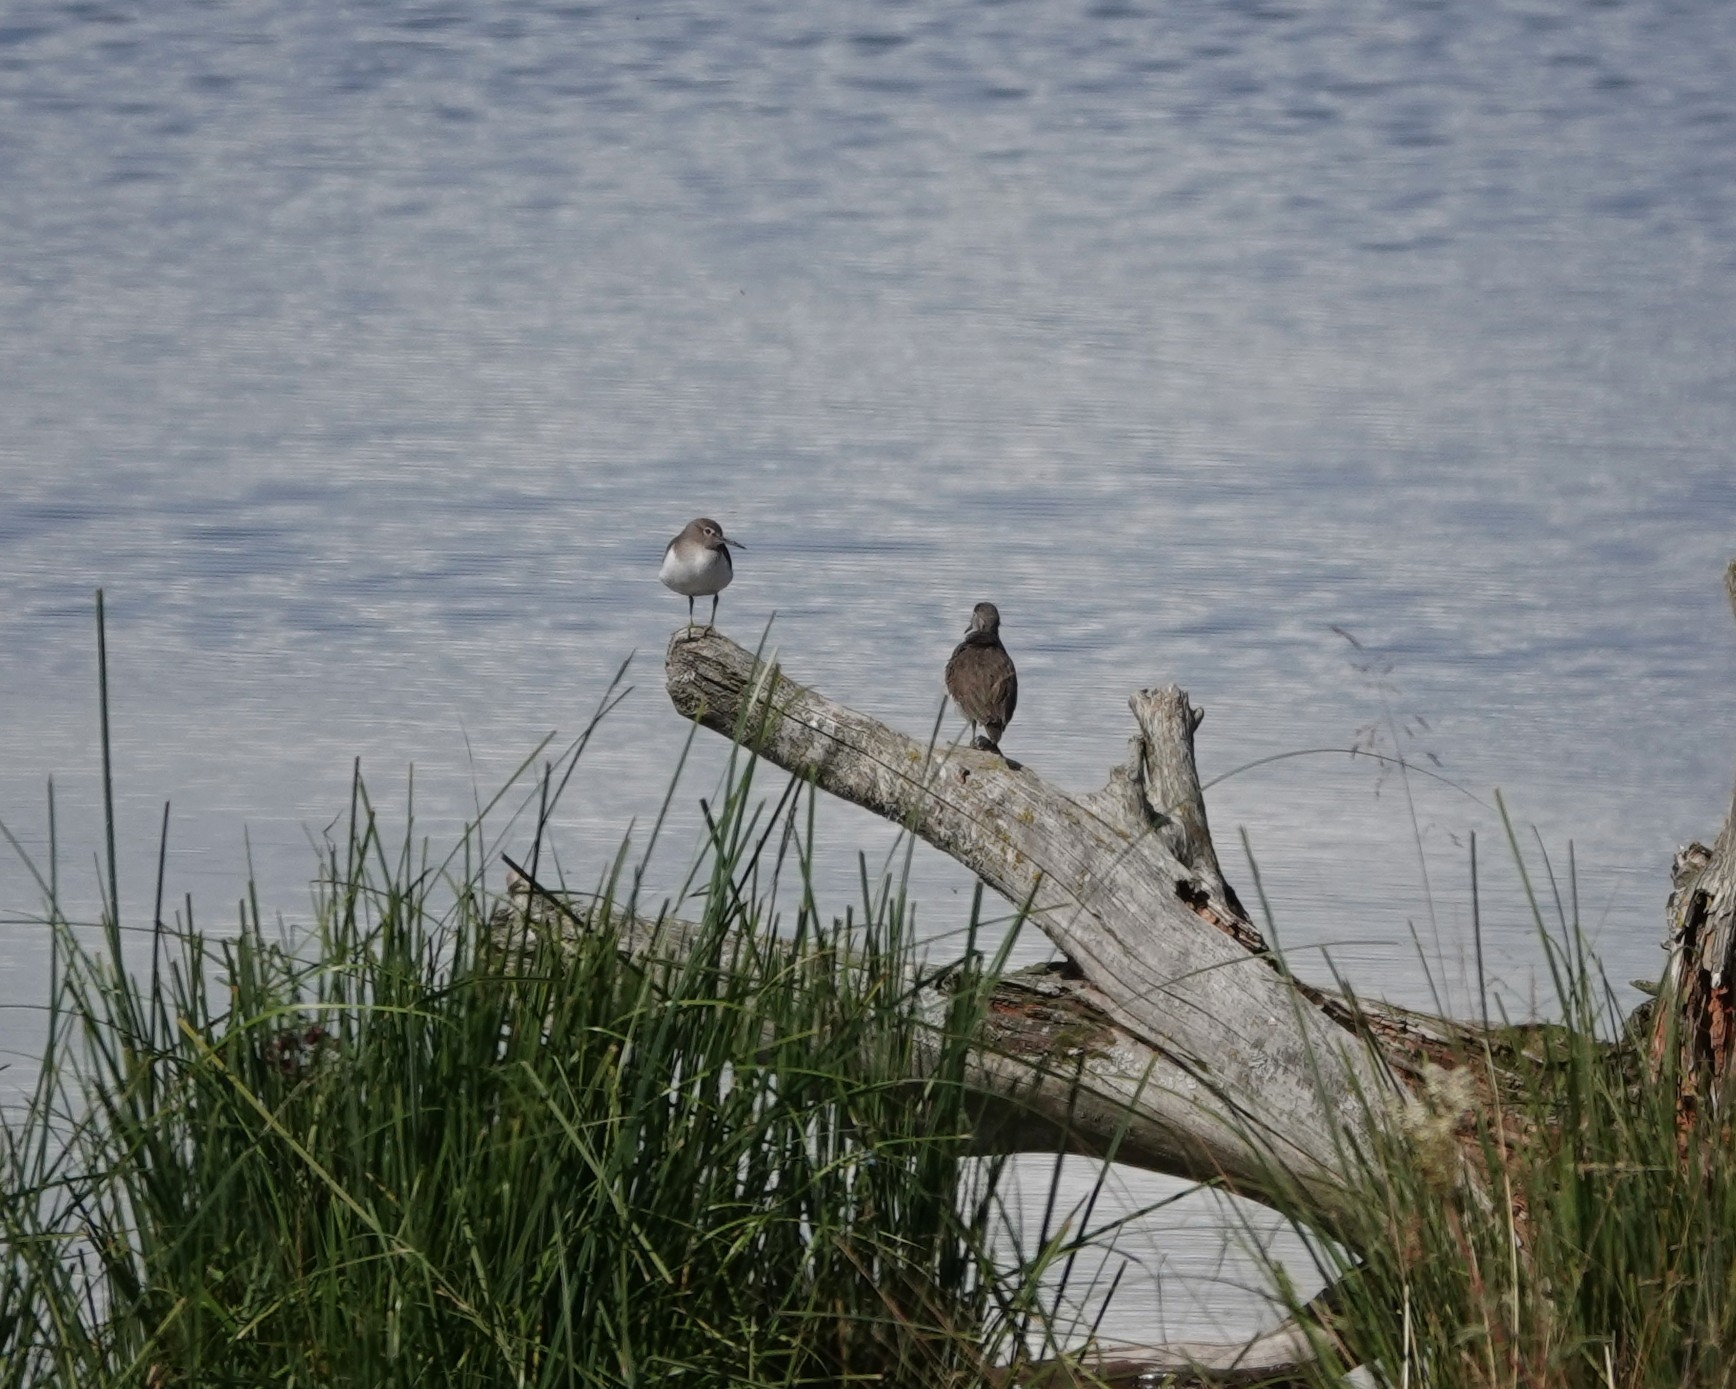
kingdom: Animalia
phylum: Chordata
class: Aves
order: Charadriiformes
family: Scolopacidae
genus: Actitis
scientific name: Actitis hypoleucos
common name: Common sandpiper
